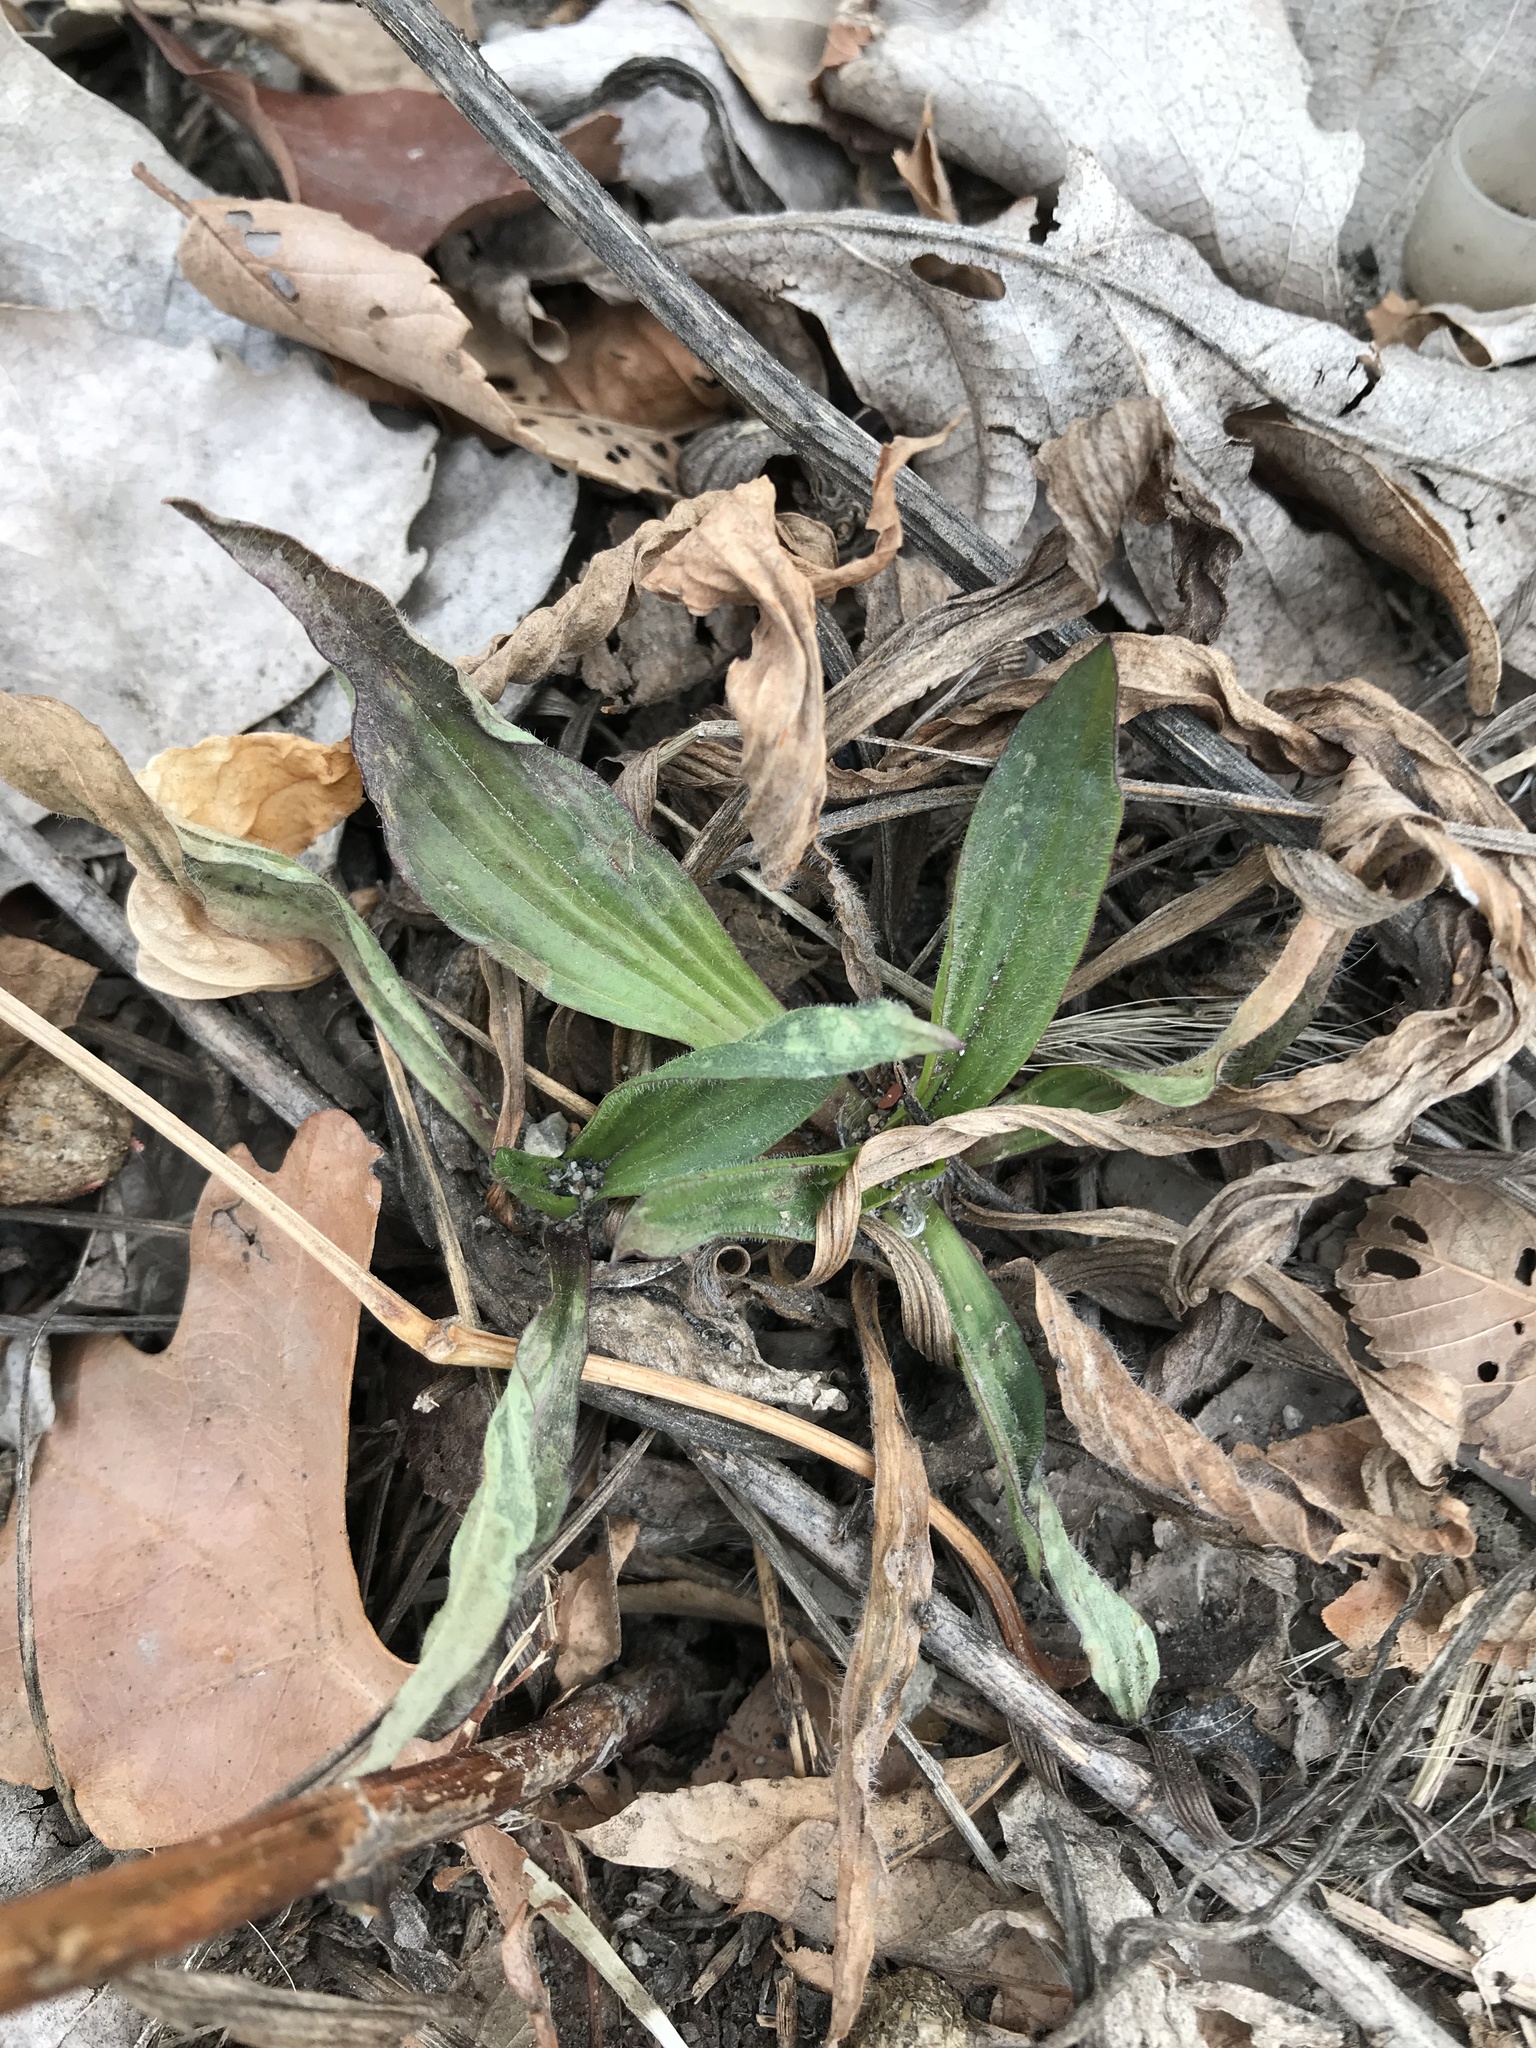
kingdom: Plantae
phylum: Tracheophyta
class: Magnoliopsida
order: Lamiales
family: Plantaginaceae
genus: Plantago
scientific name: Plantago lanceolata
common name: Ribwort plantain
